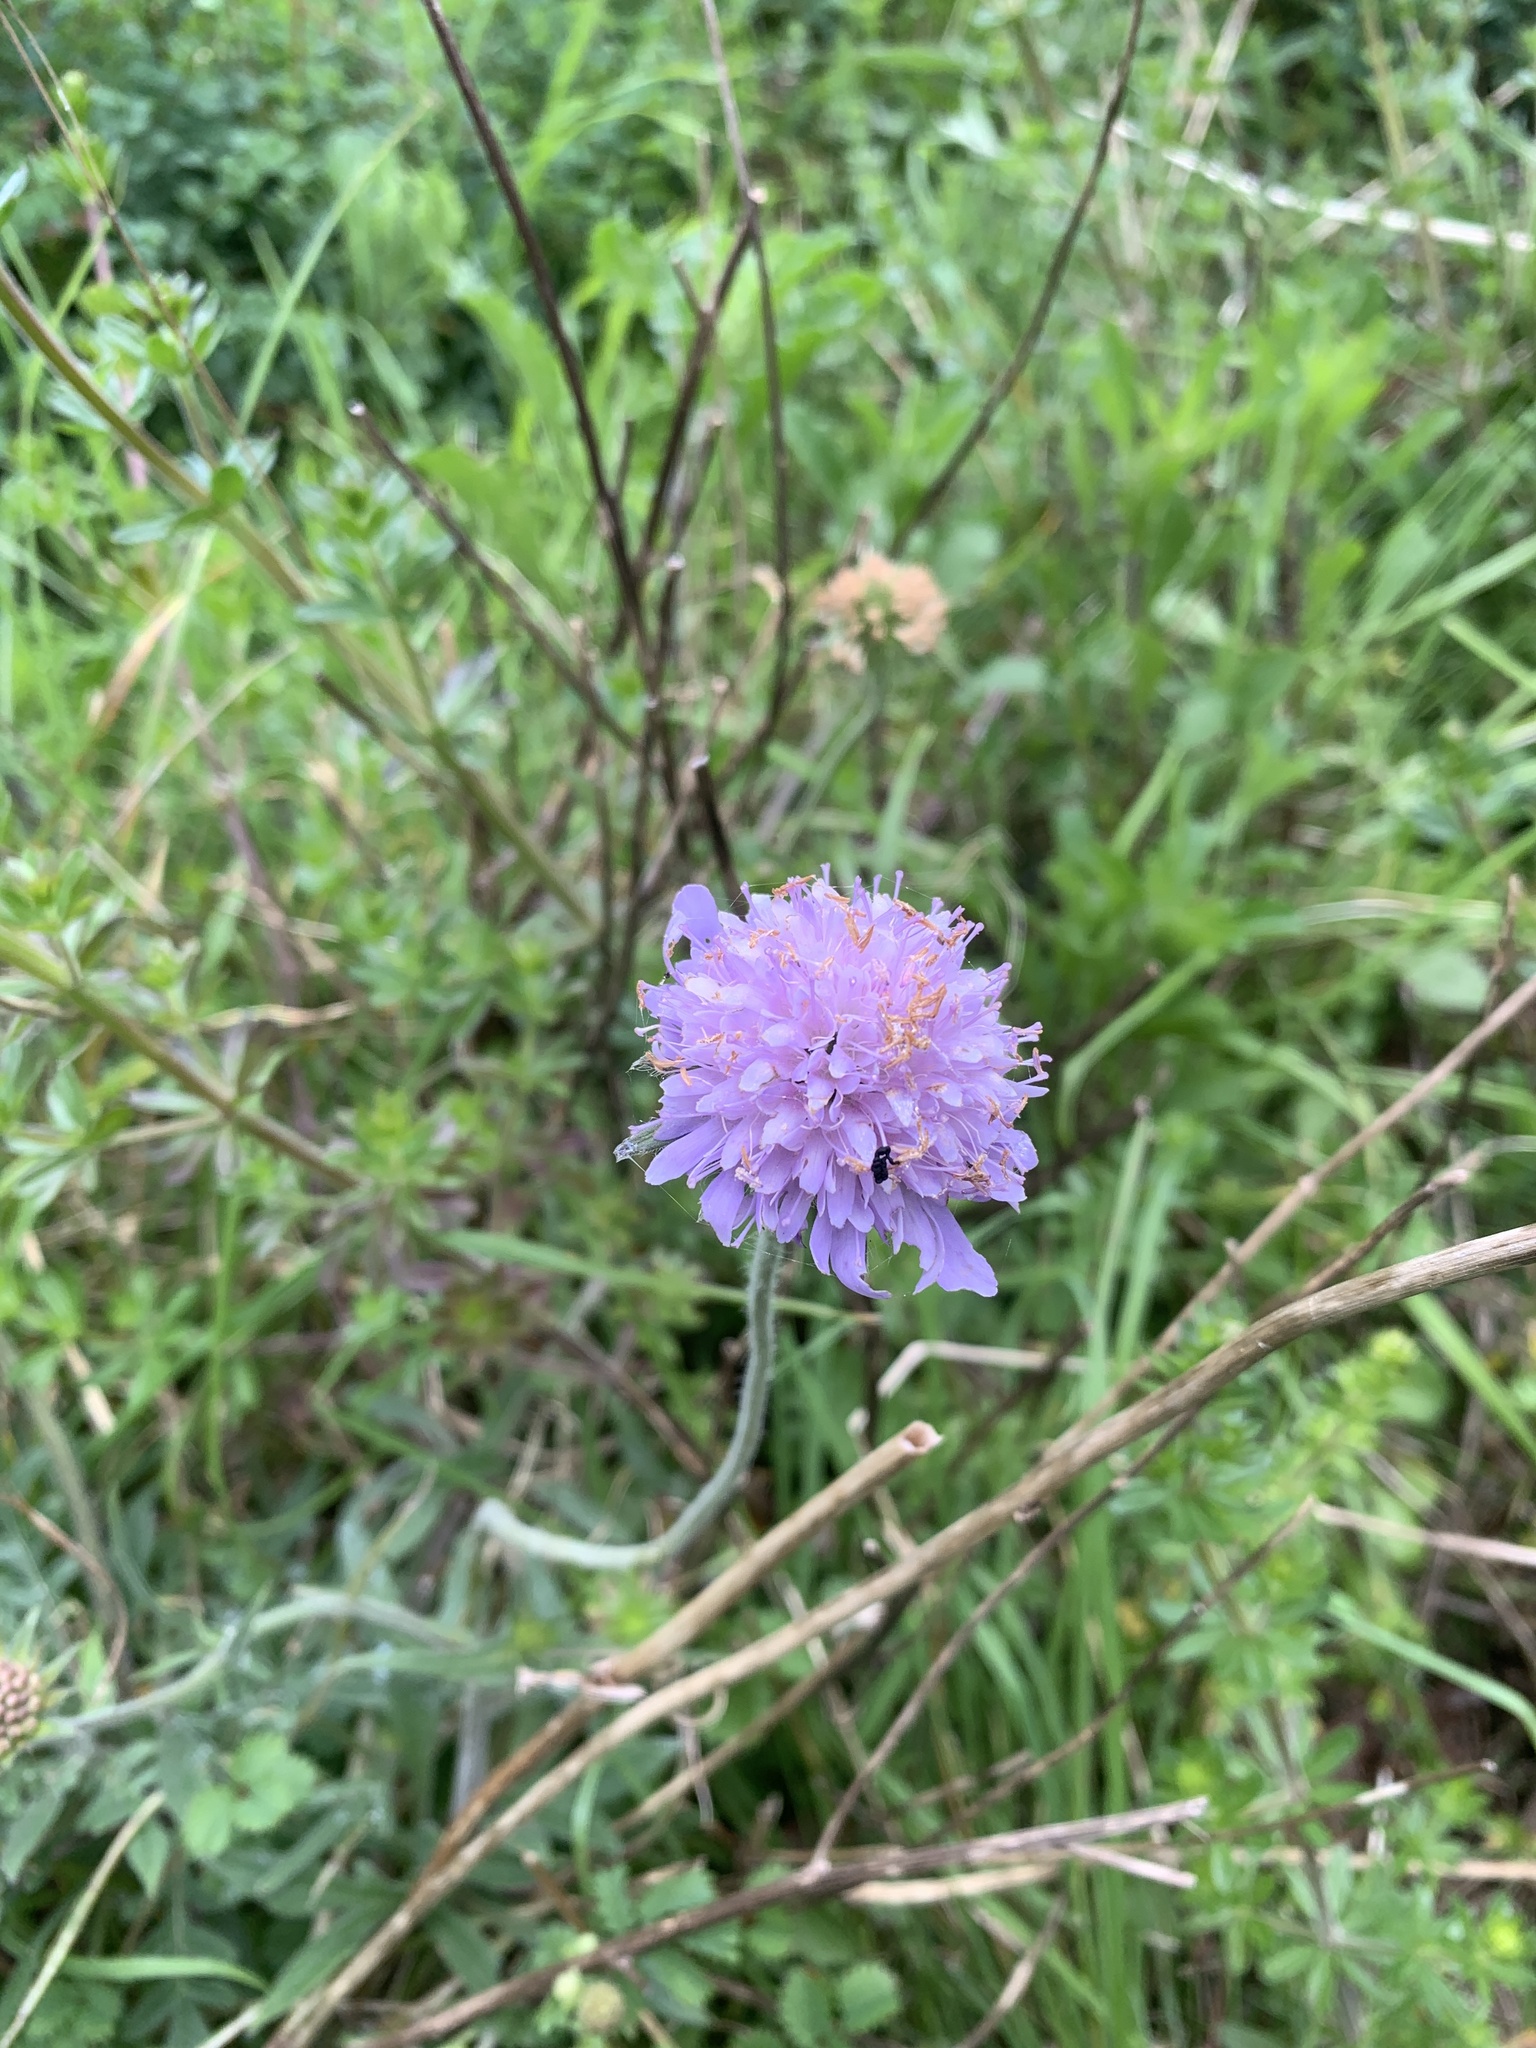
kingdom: Plantae
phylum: Tracheophyta
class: Magnoliopsida
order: Dipsacales
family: Caprifoliaceae
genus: Knautia
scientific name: Knautia arvensis
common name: Field scabiosa
